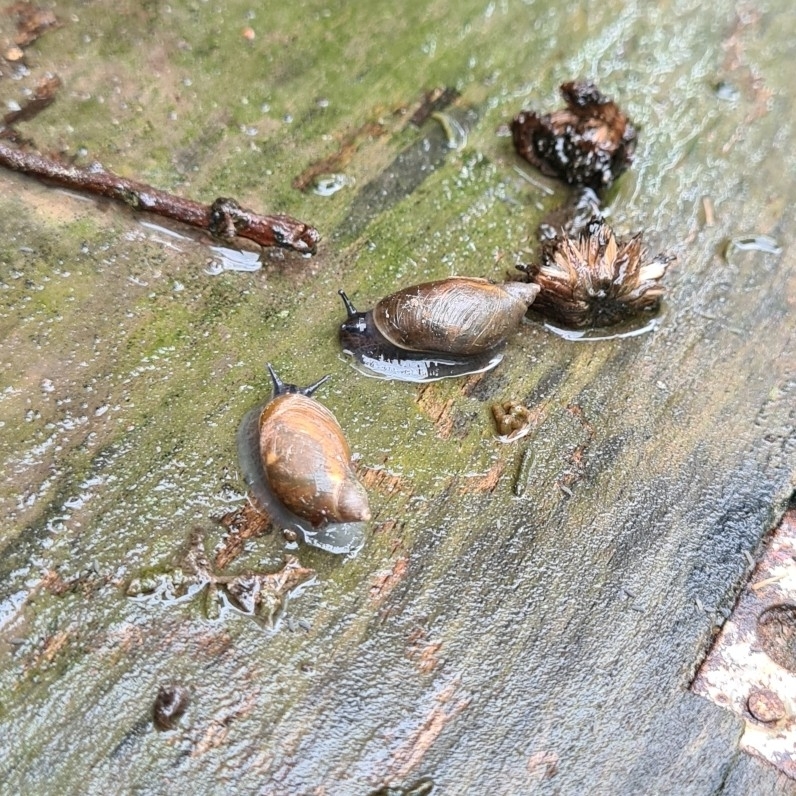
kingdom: Animalia
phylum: Mollusca
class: Gastropoda
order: Stylommatophora
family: Succineidae
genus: Succinea
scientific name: Succinea putris
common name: European ambersnail
